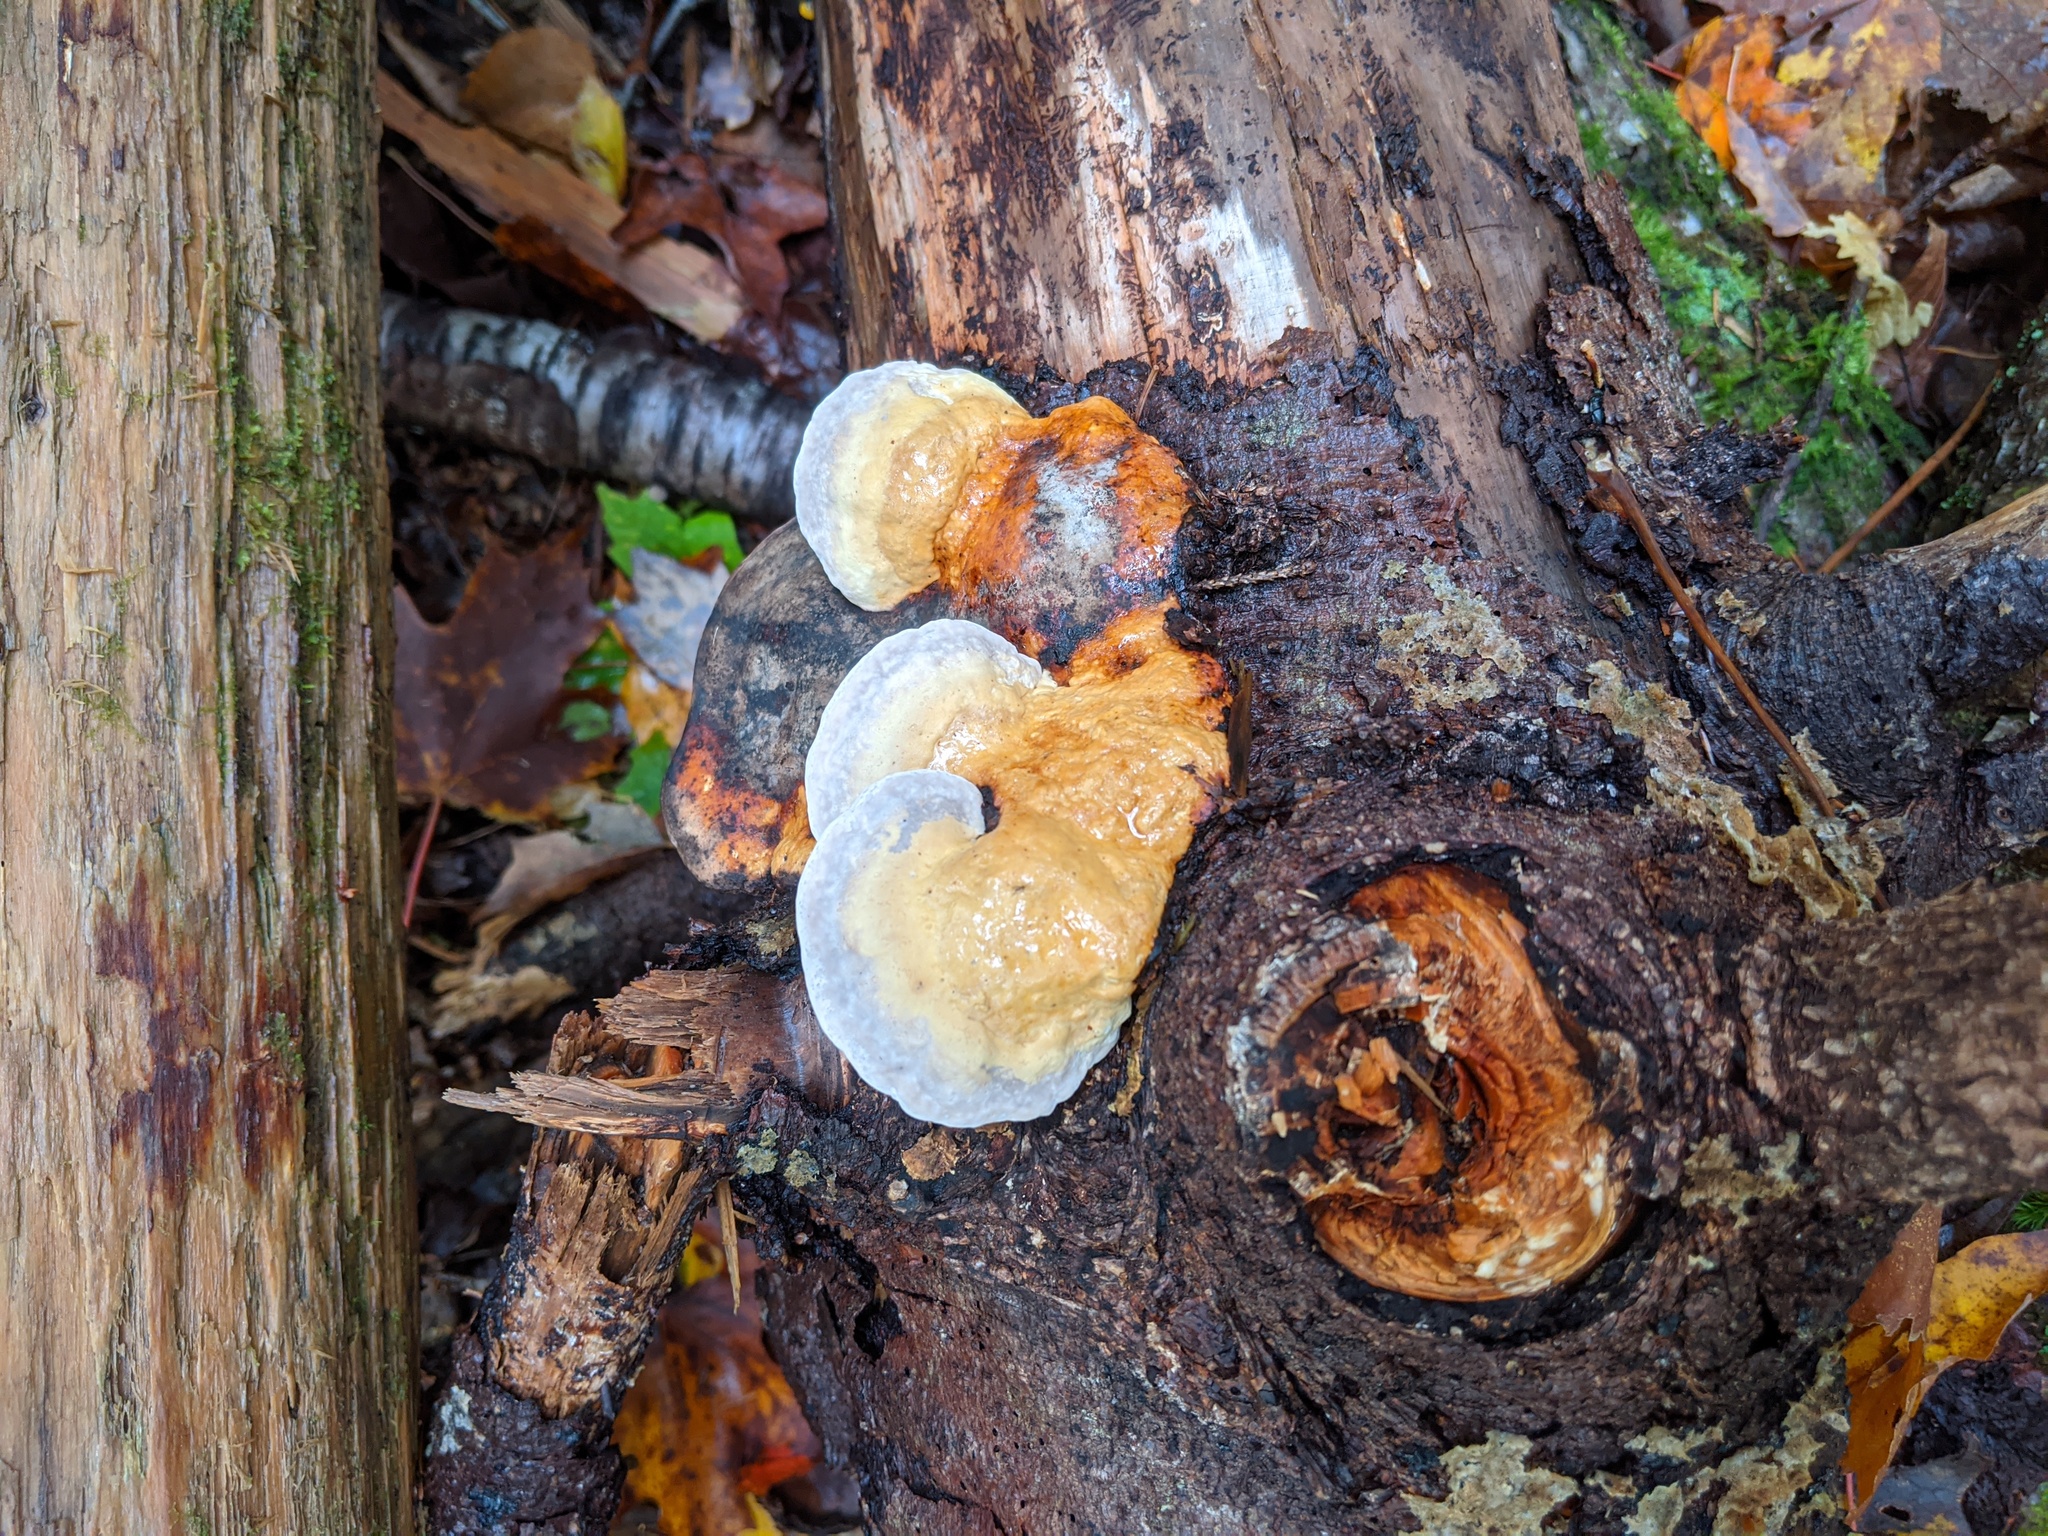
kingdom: Fungi
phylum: Basidiomycota
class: Agaricomycetes
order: Polyporales
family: Fomitopsidaceae
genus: Fomitopsis
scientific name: Fomitopsis mounceae
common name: Northern red belt
